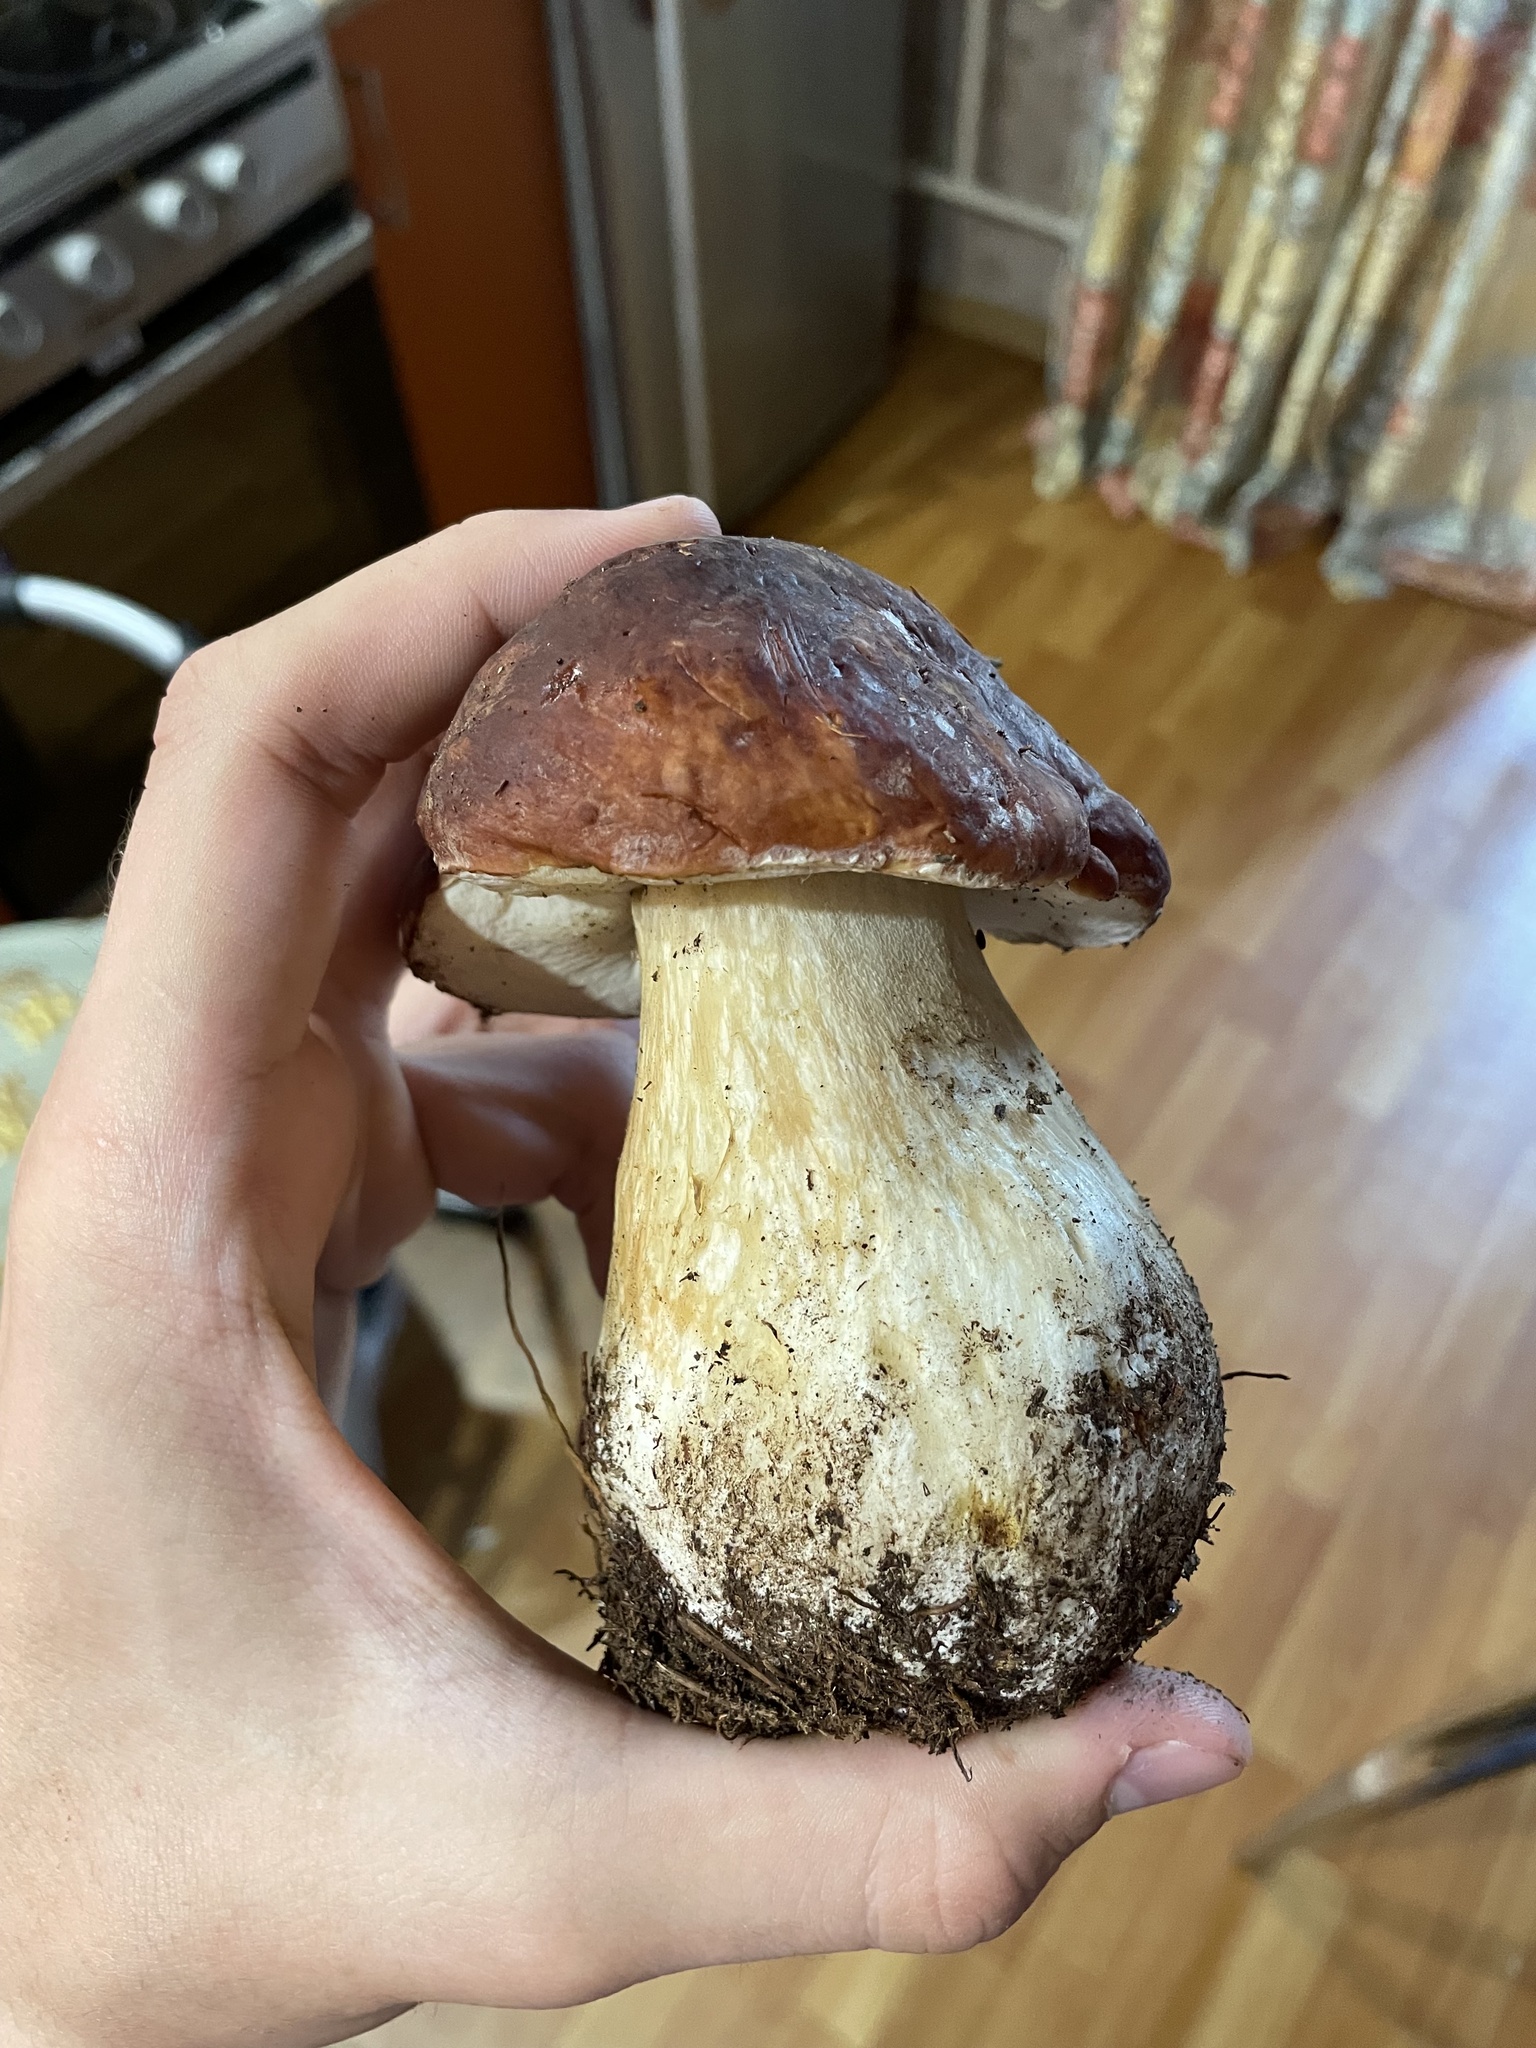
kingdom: Fungi
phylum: Basidiomycota
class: Agaricomycetes
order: Boletales
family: Boletaceae
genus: Boletus
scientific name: Boletus pinophilus
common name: Pine bolete
